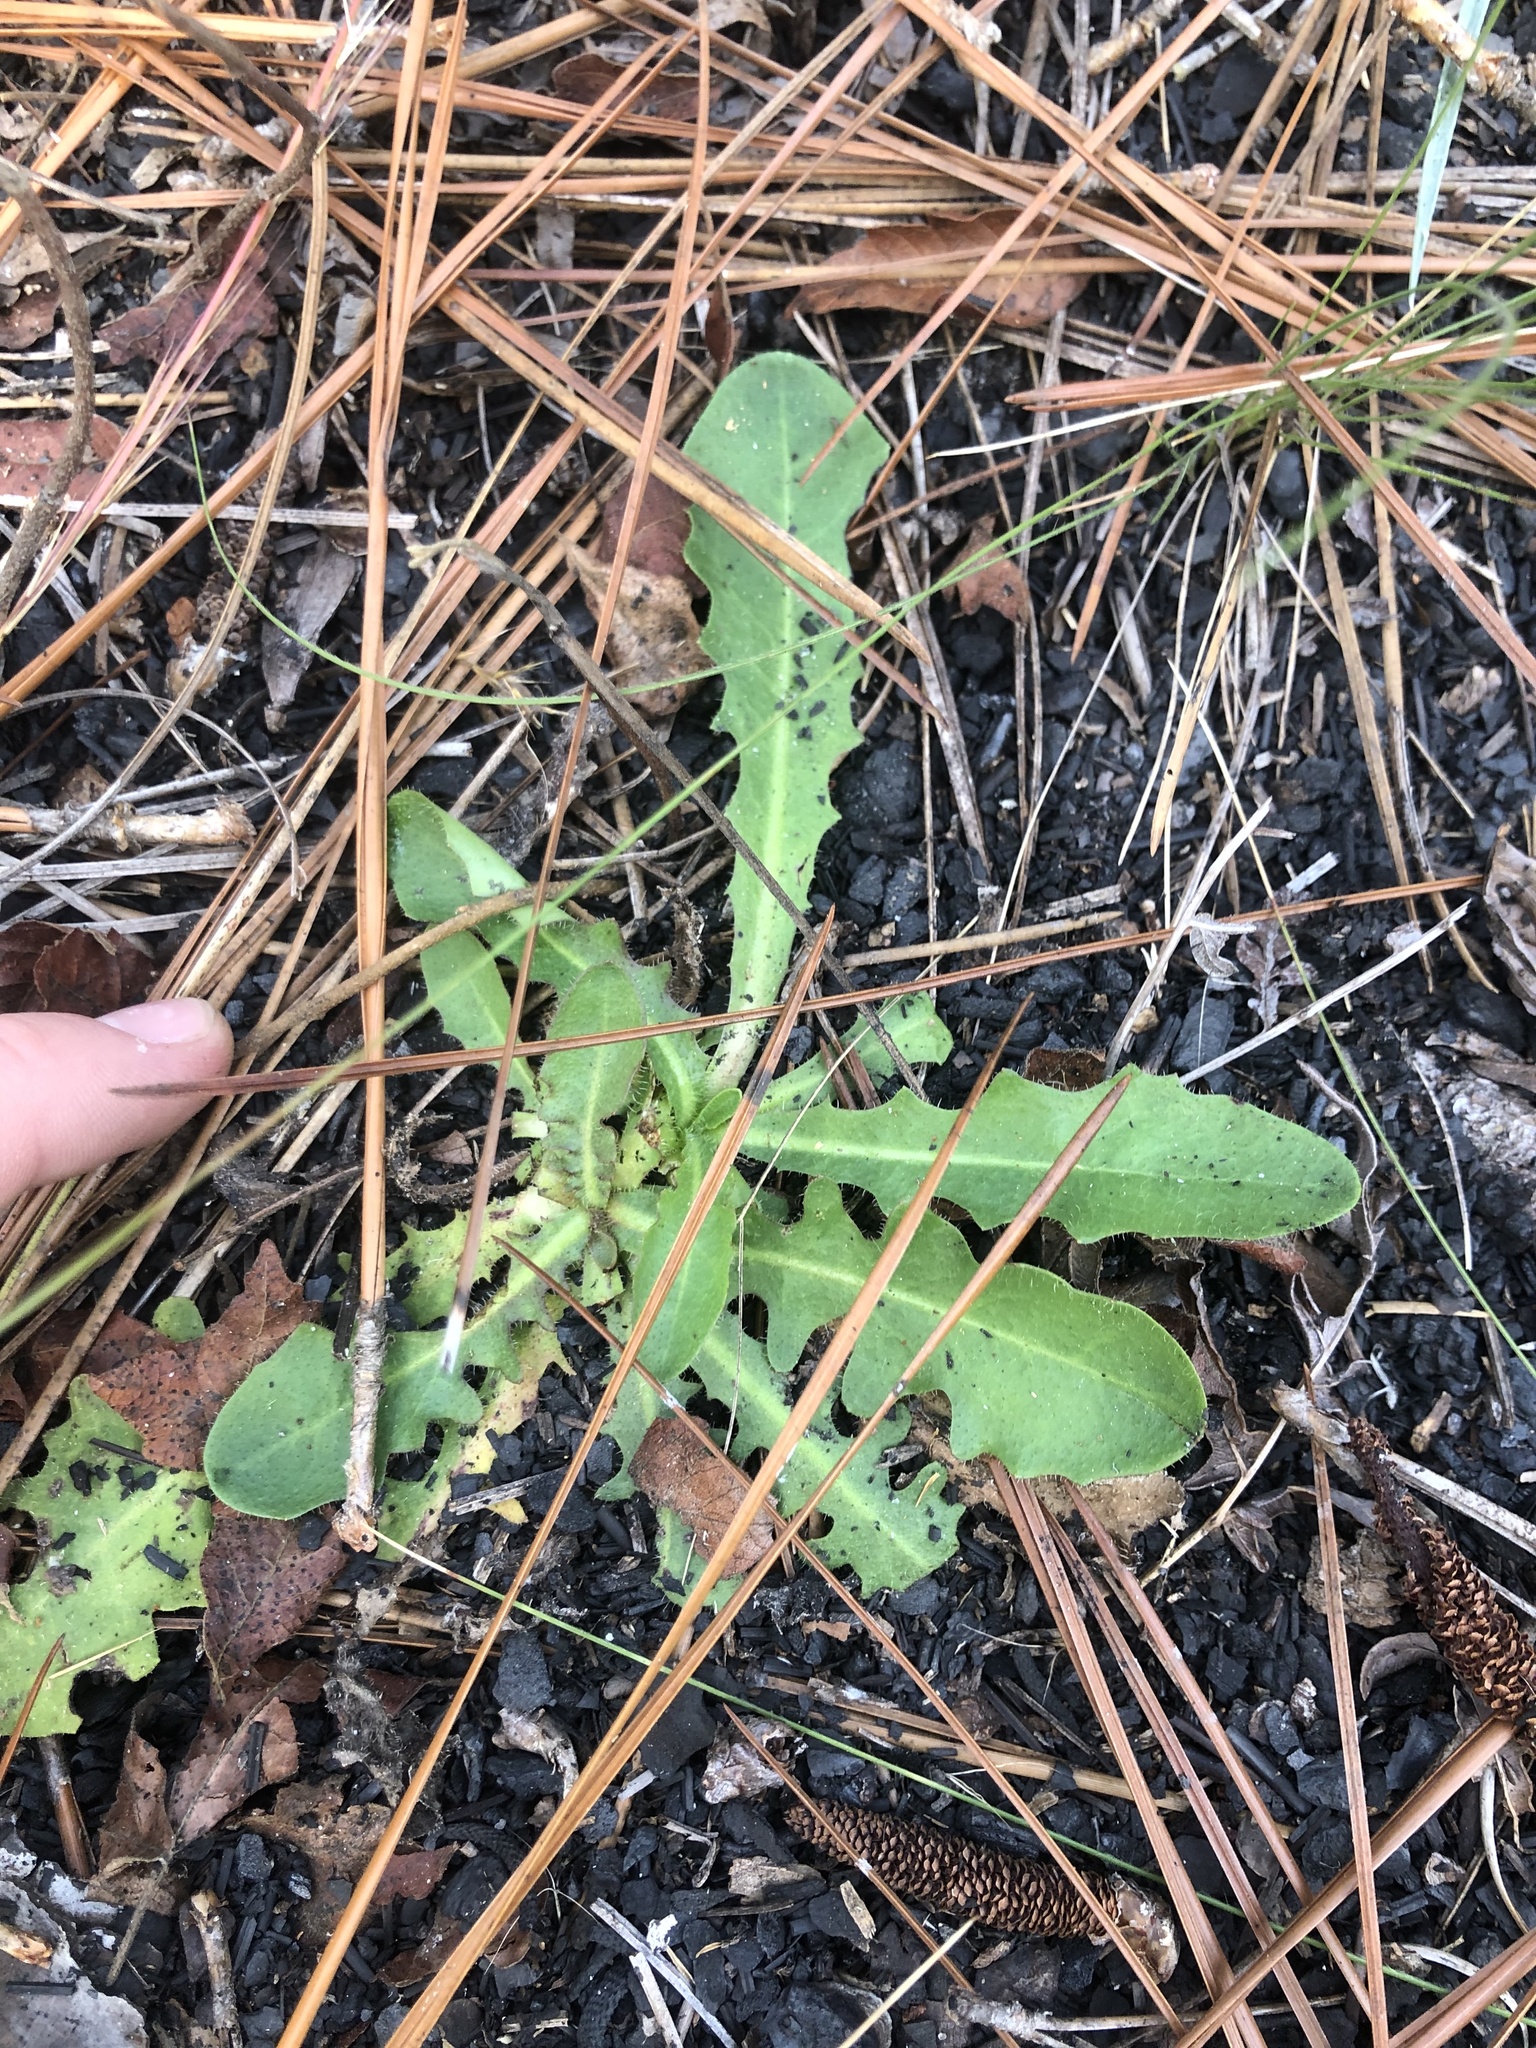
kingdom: Plantae
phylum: Tracheophyta
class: Magnoliopsida
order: Asterales
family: Asteraceae
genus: Hypochaeris
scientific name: Hypochaeris radicata
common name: Flatweed
